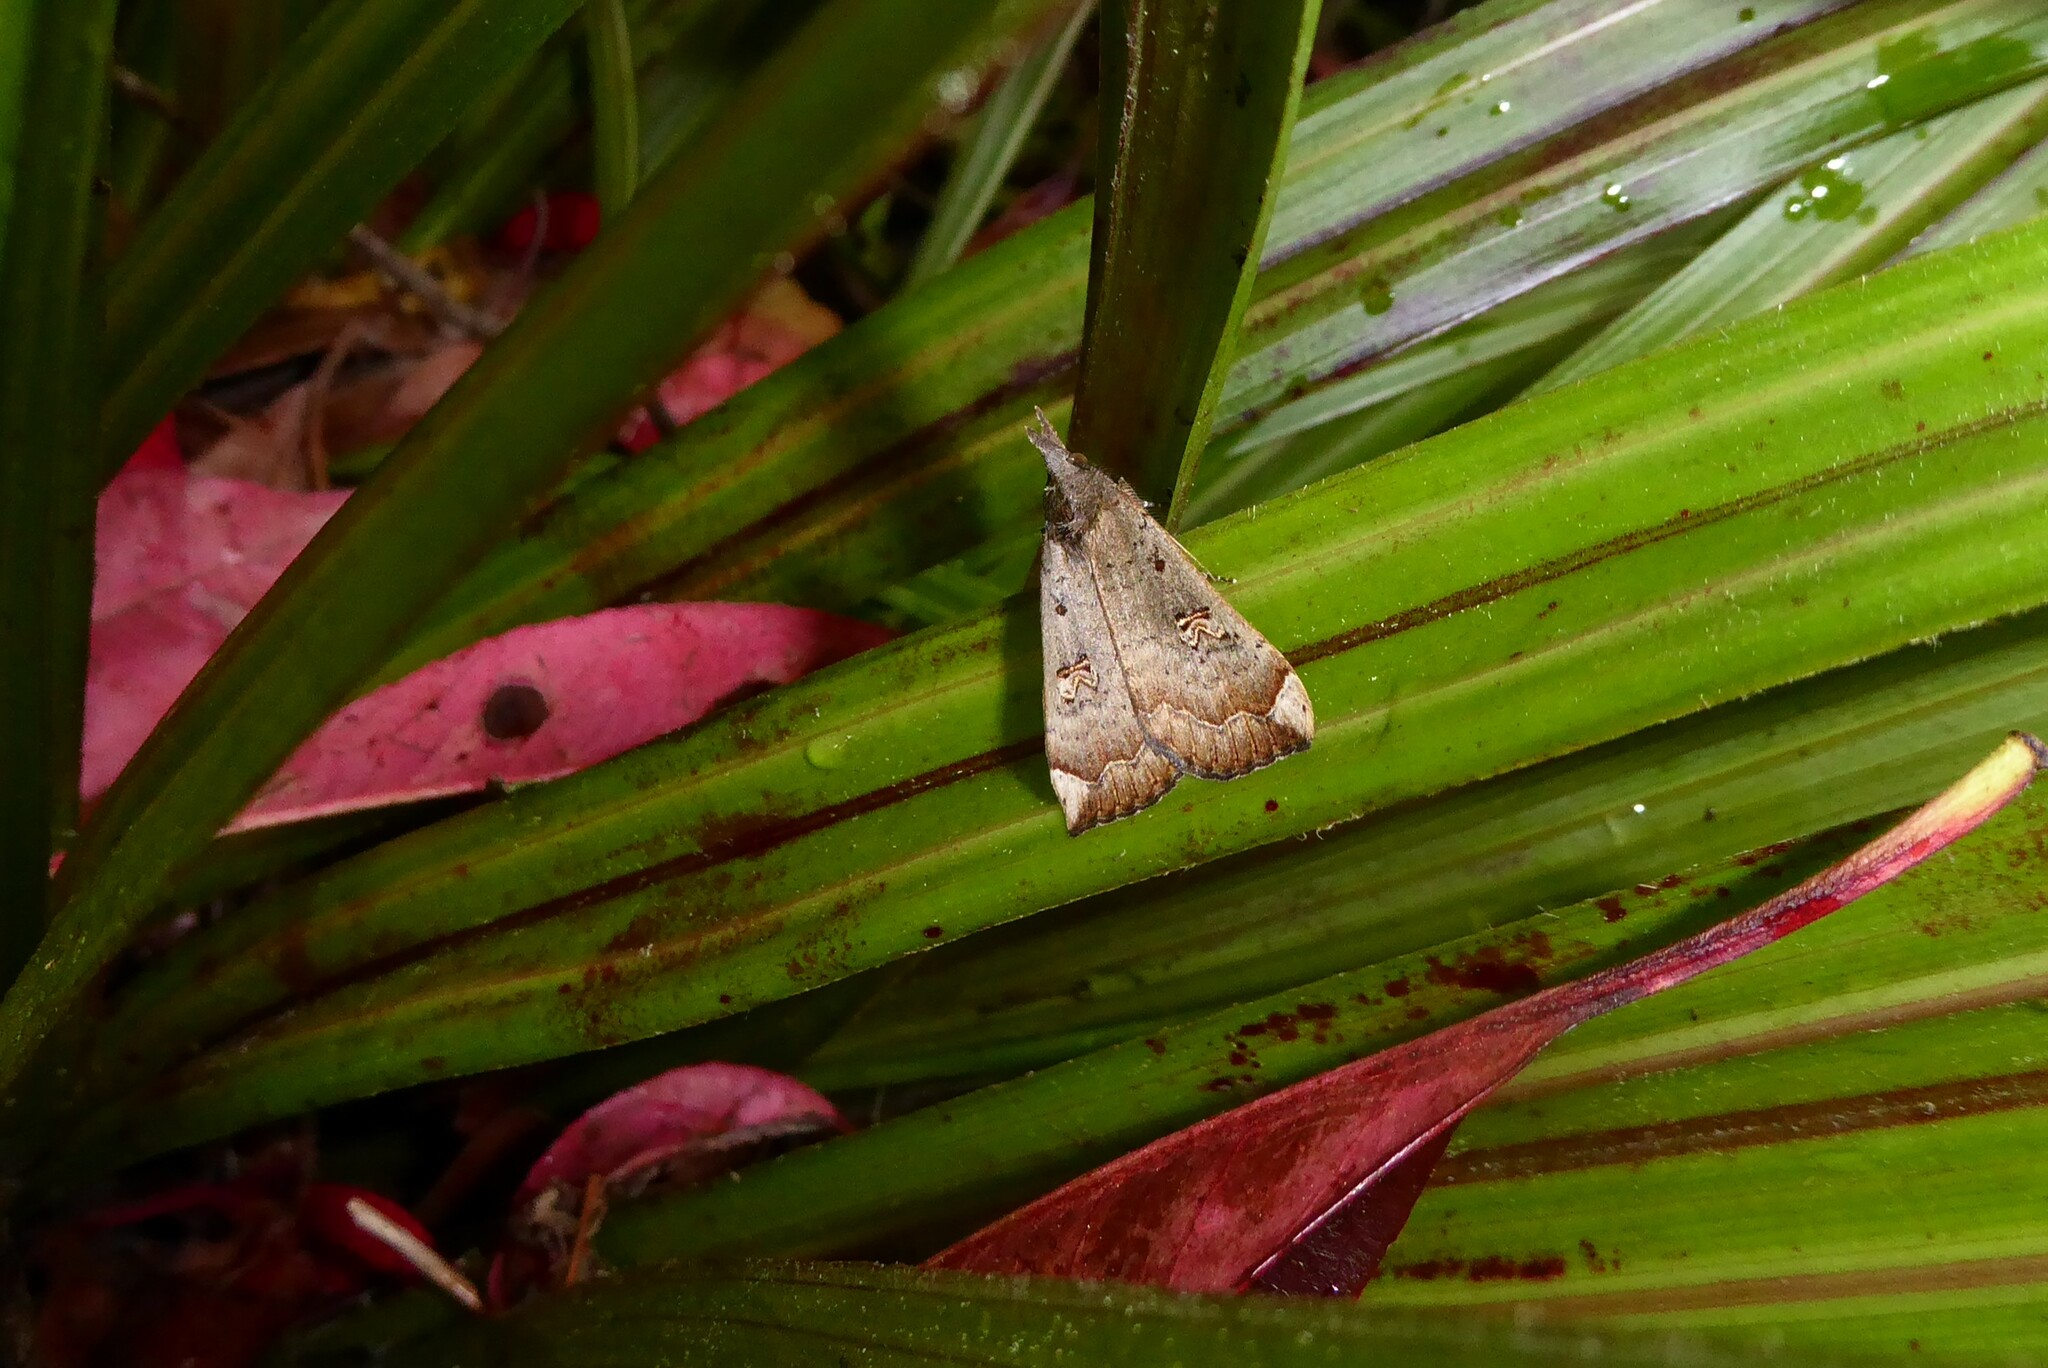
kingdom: Animalia
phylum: Arthropoda
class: Insecta
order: Lepidoptera
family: Erebidae
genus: Rhapsa
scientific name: Rhapsa scotosialis
